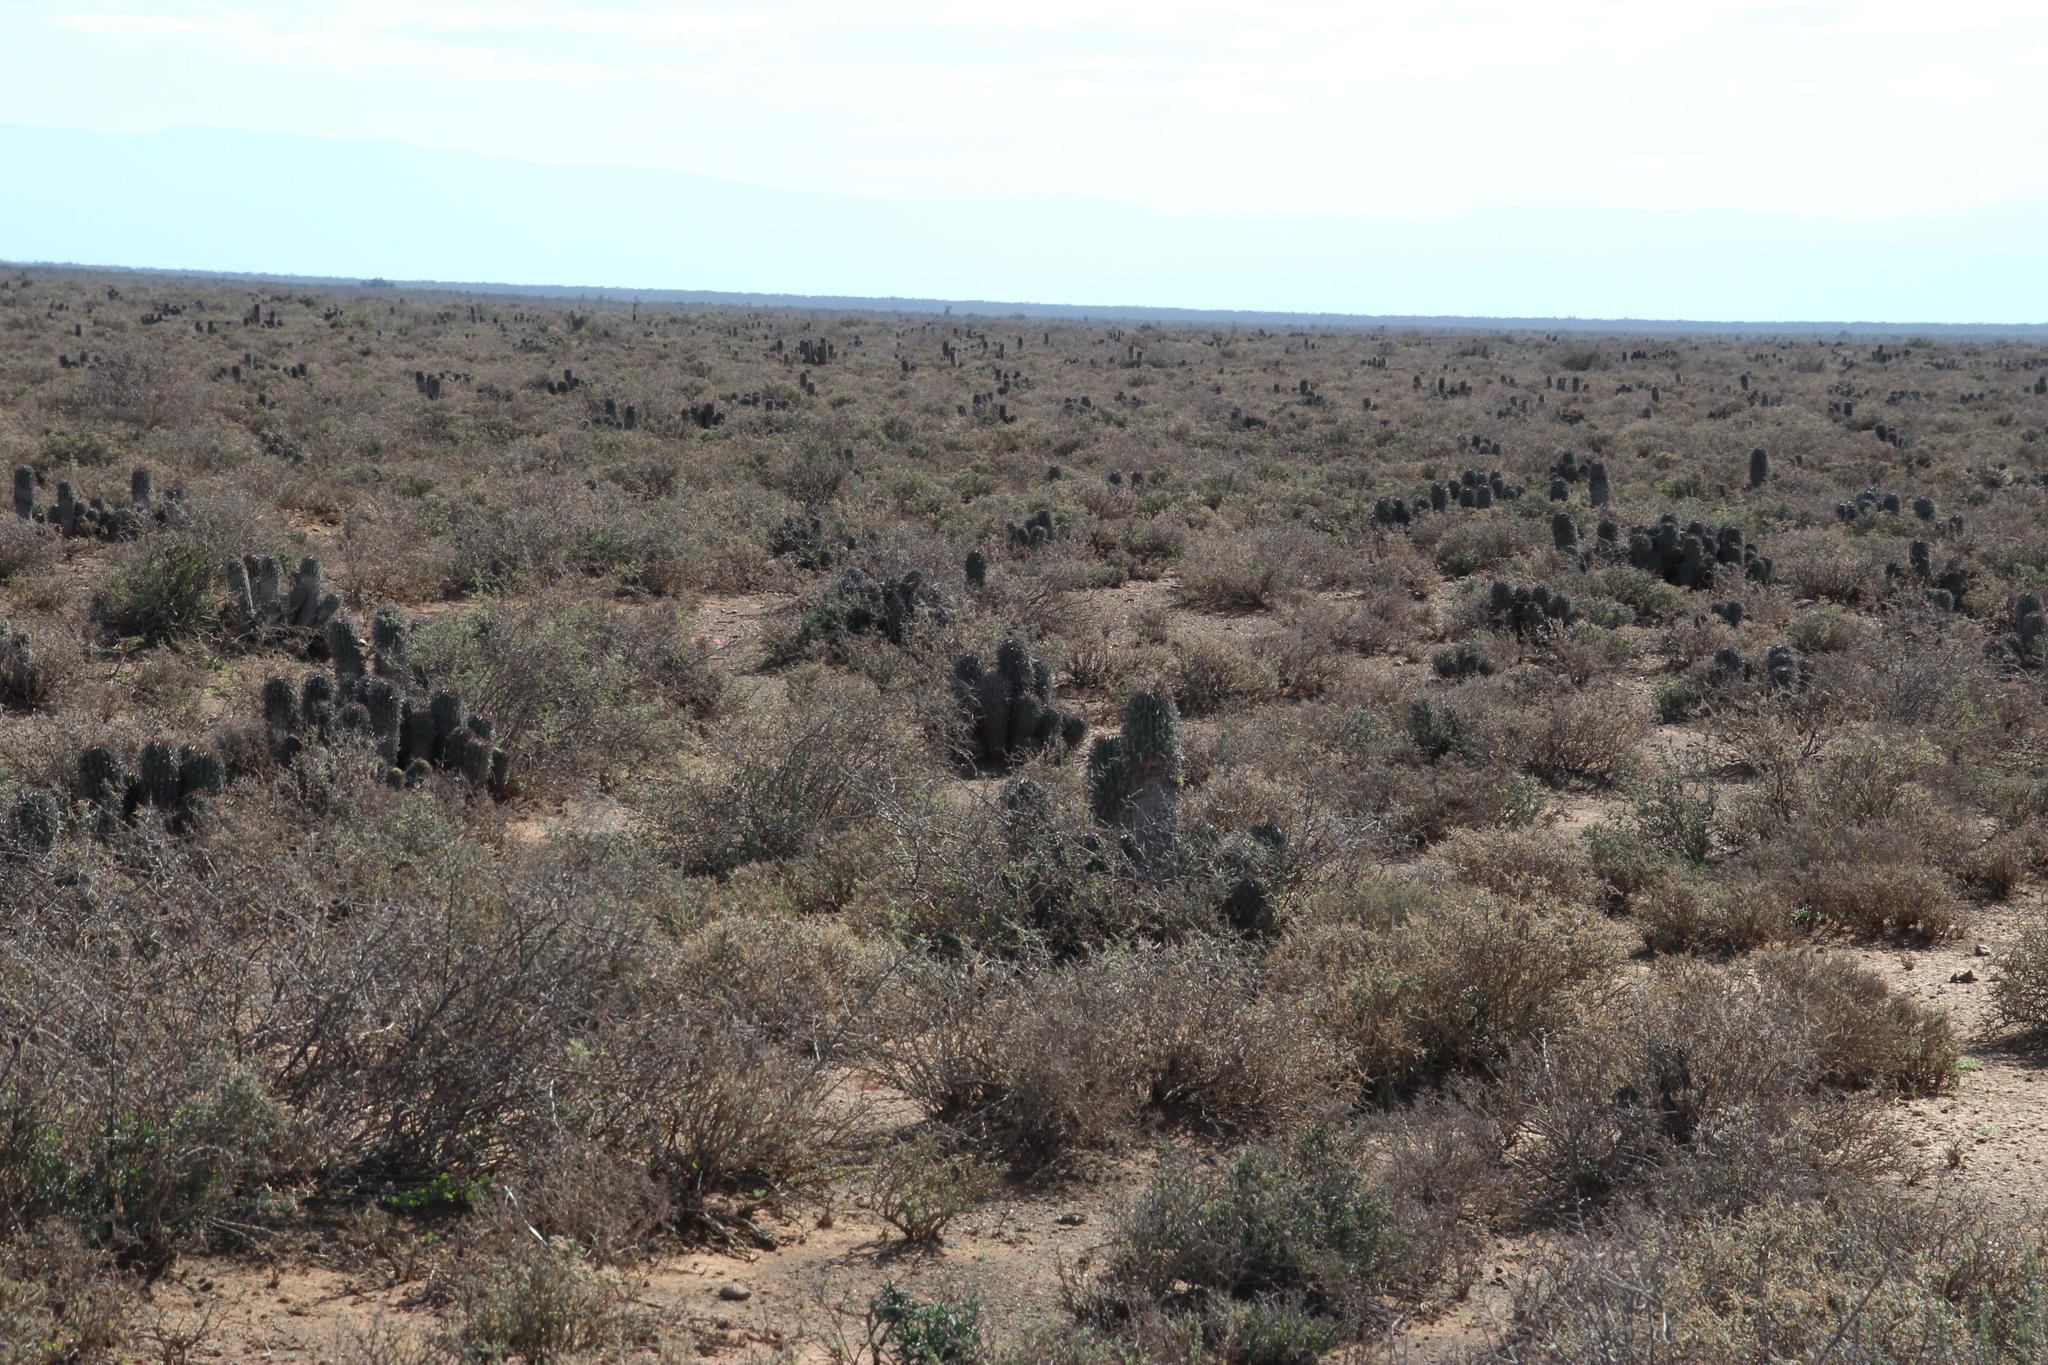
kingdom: Plantae
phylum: Tracheophyta
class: Magnoliopsida
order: Malpighiales
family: Euphorbiaceae
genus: Euphorbia
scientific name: Euphorbia stellispina
